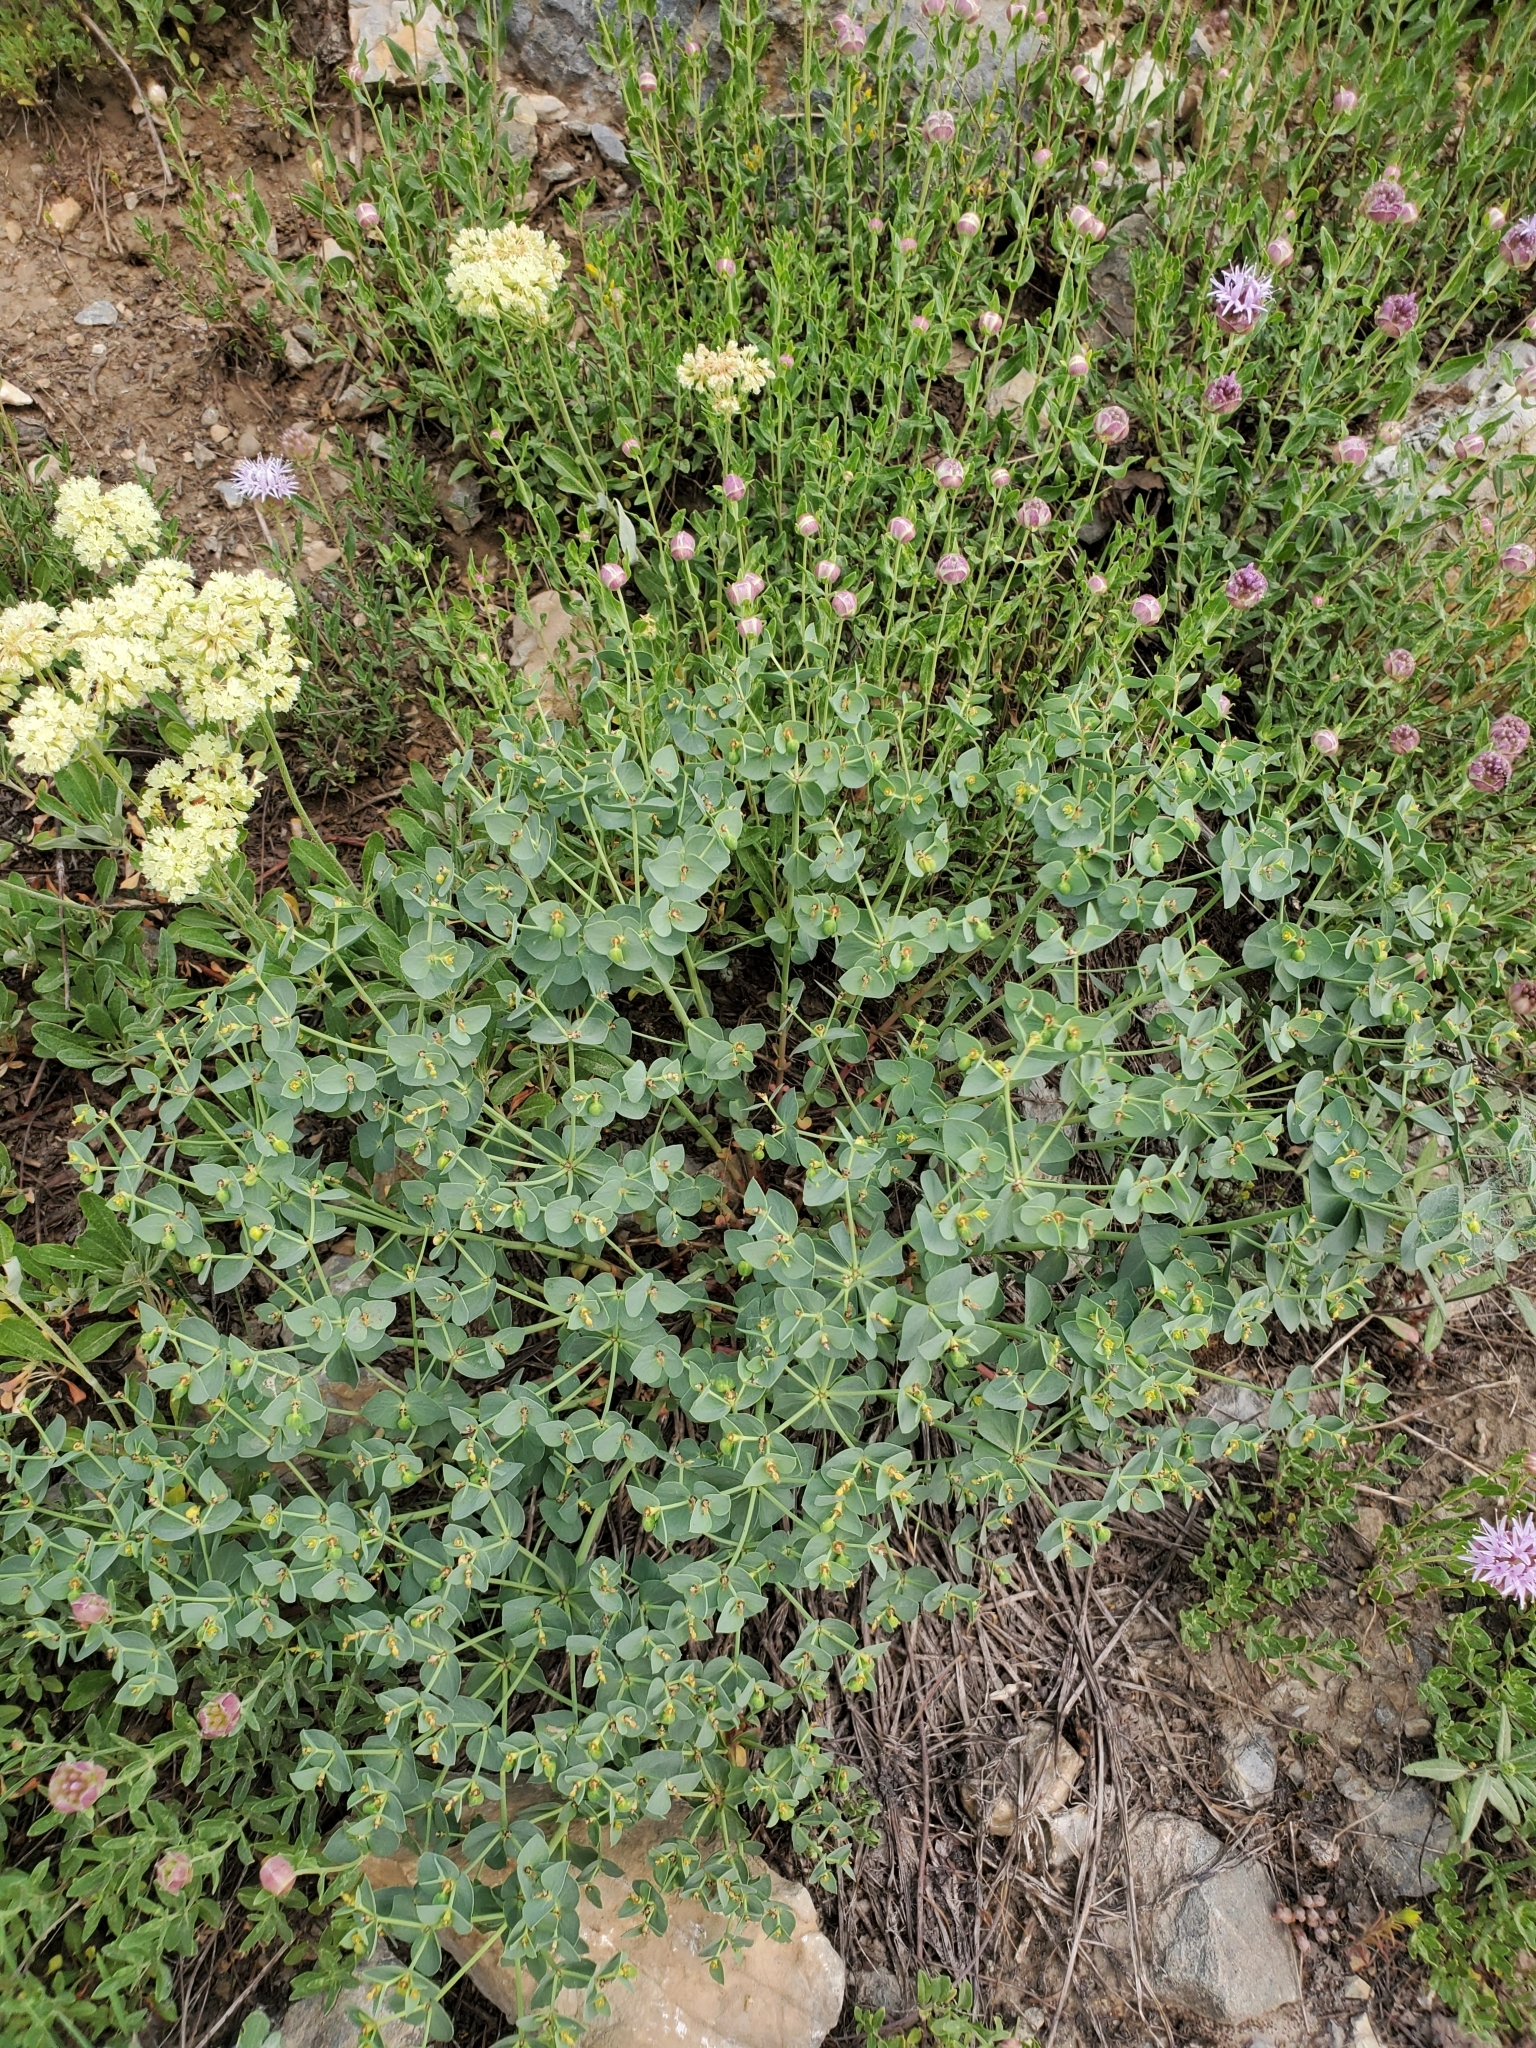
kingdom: Plantae
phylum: Tracheophyta
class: Magnoliopsida
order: Malpighiales
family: Euphorbiaceae
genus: Euphorbia
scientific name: Euphorbia brachycera
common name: Shorthorn spurge
